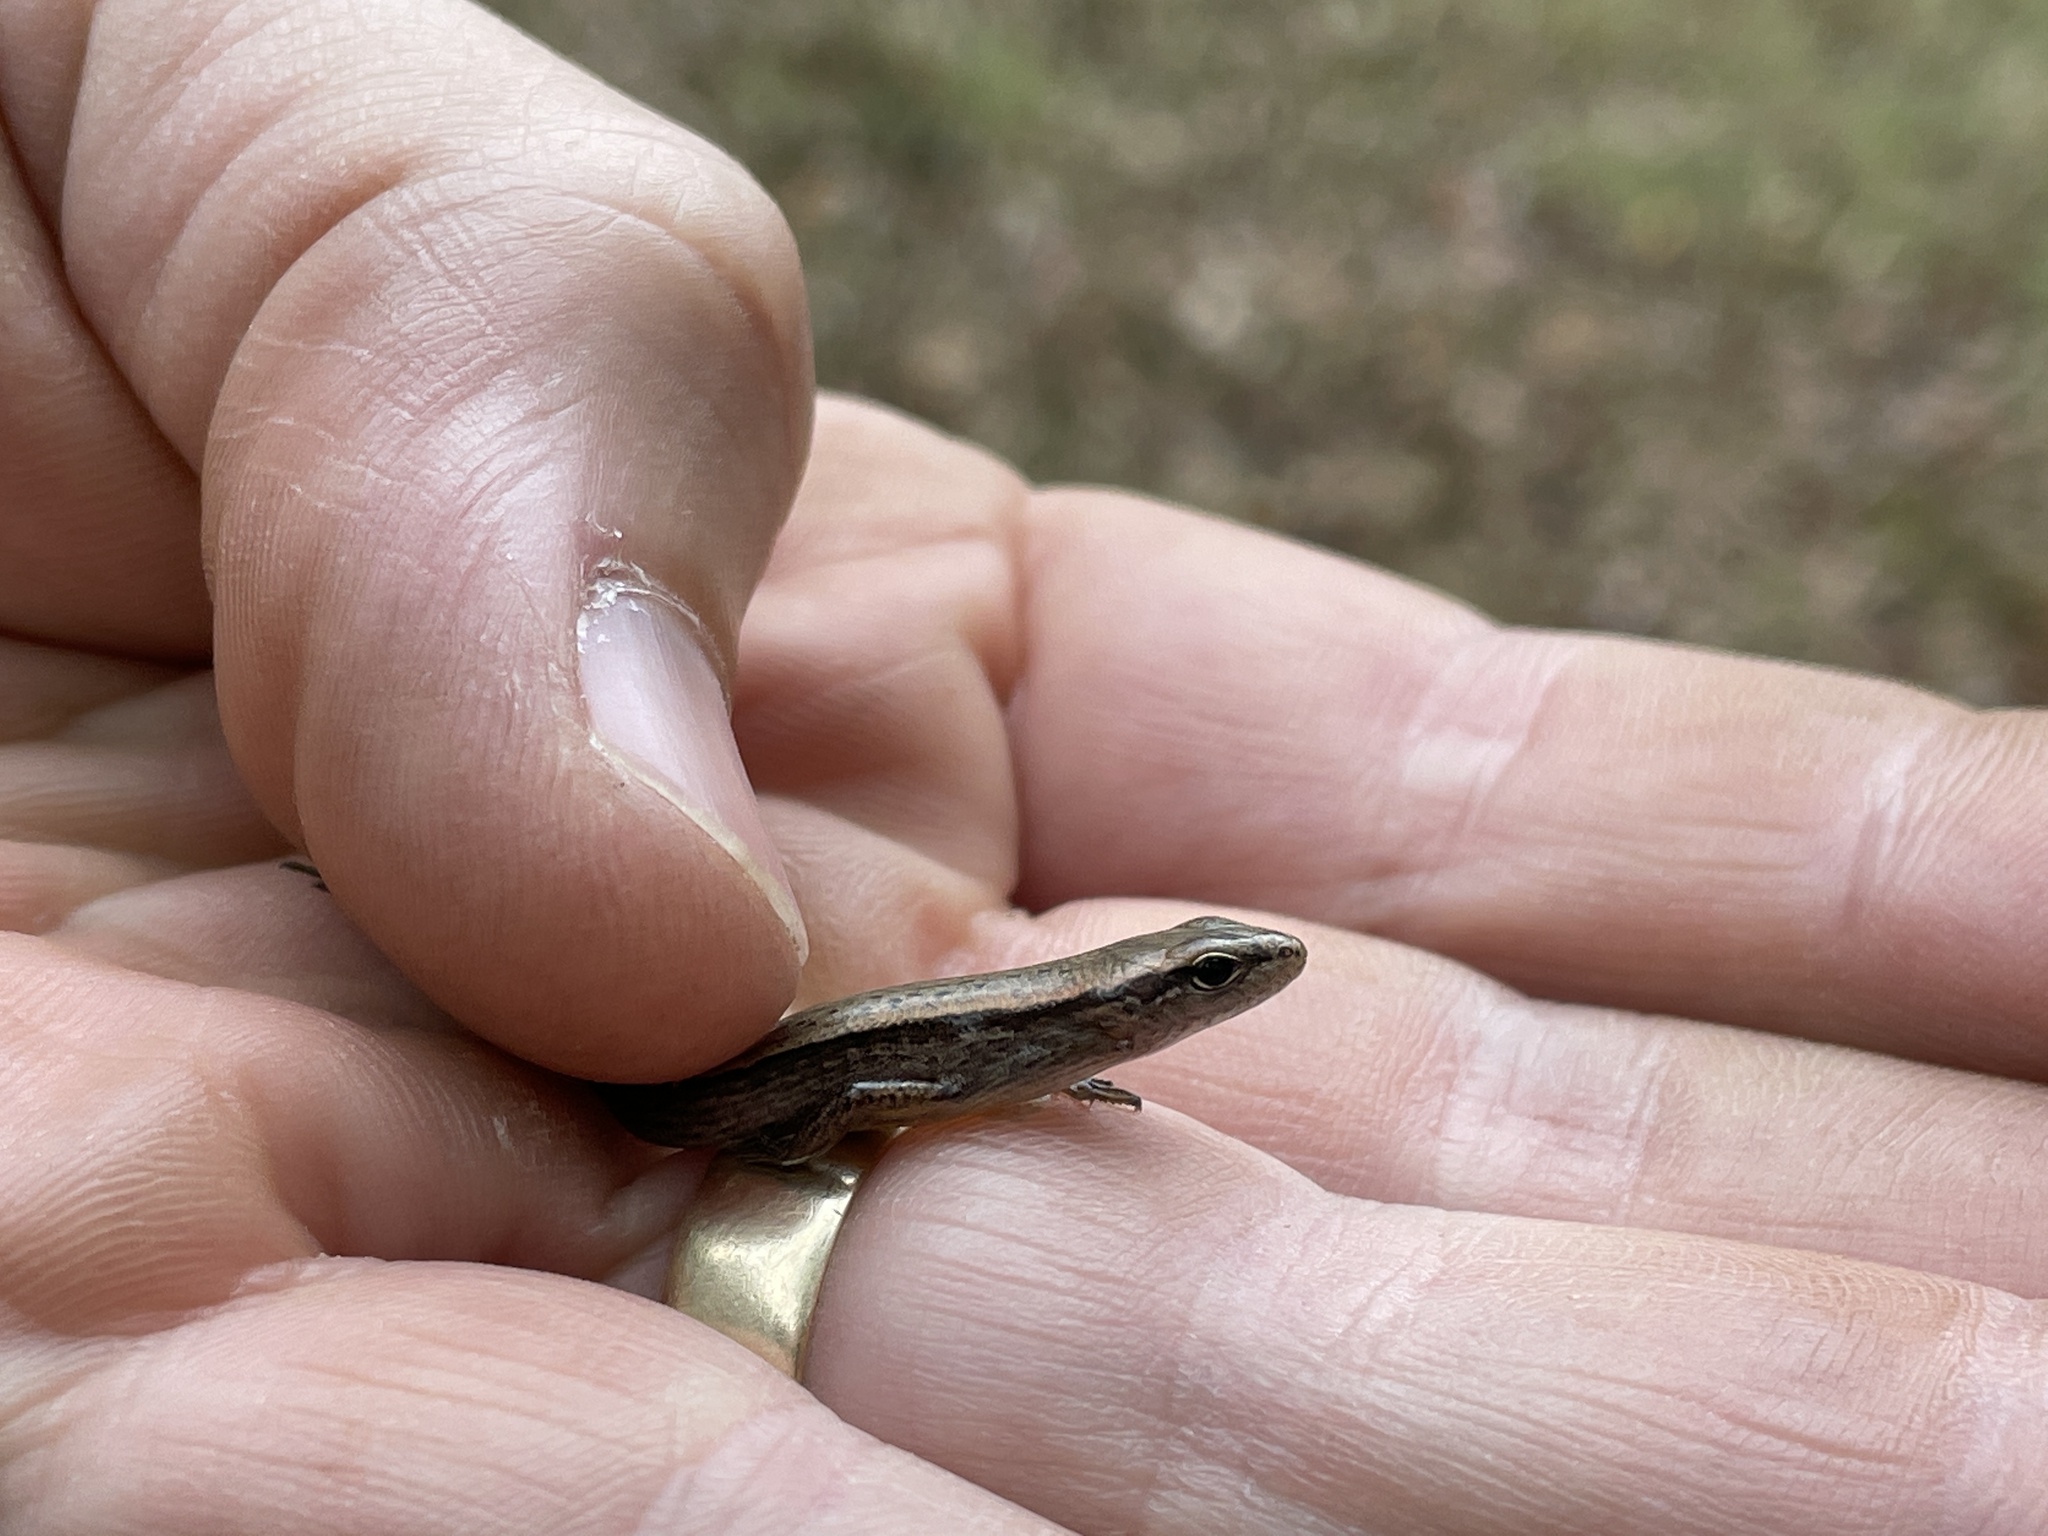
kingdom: Animalia
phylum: Chordata
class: Squamata
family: Scincidae
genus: Scincella
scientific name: Scincella lateralis
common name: Ground skink
